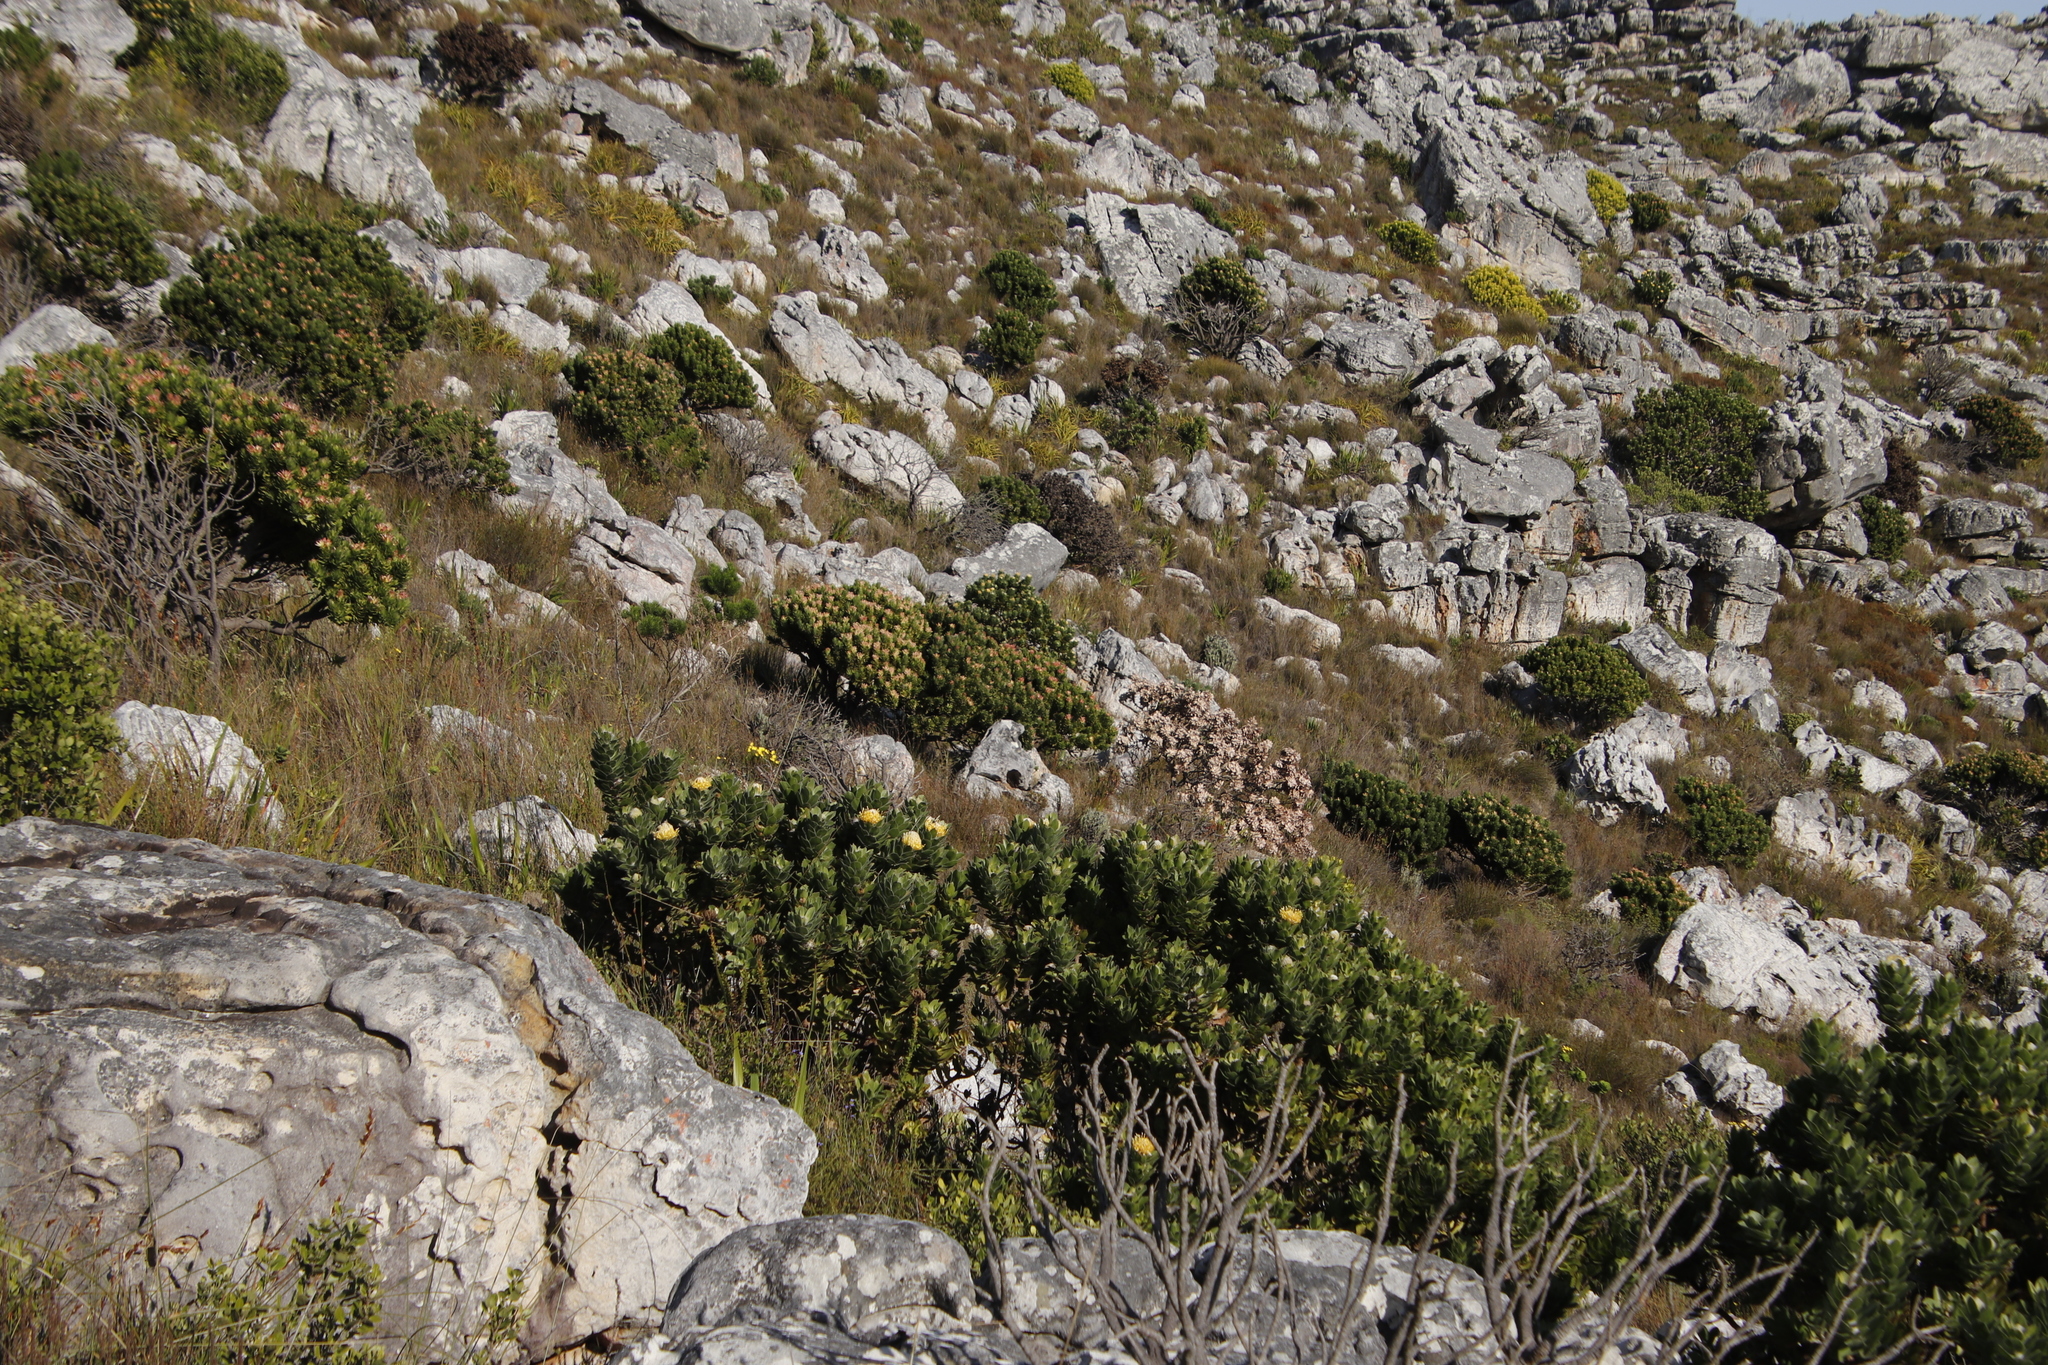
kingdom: Plantae
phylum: Tracheophyta
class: Magnoliopsida
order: Proteales
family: Proteaceae
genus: Leucospermum
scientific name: Leucospermum conocarpodendron
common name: Tree pincushion
